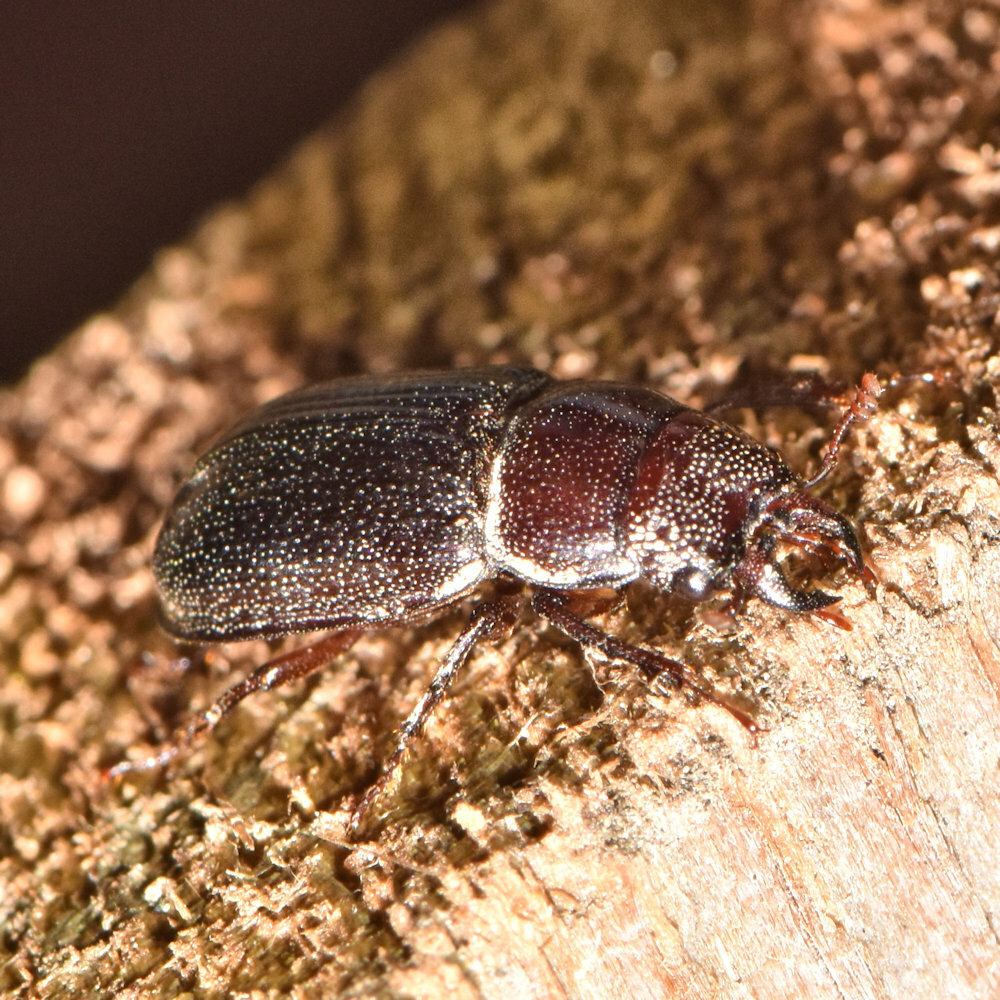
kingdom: Animalia
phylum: Arthropoda
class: Insecta
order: Coleoptera
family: Lucanidae
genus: Ceruchus
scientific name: Ceruchus piceus
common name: Red-rot decay stag beetle
